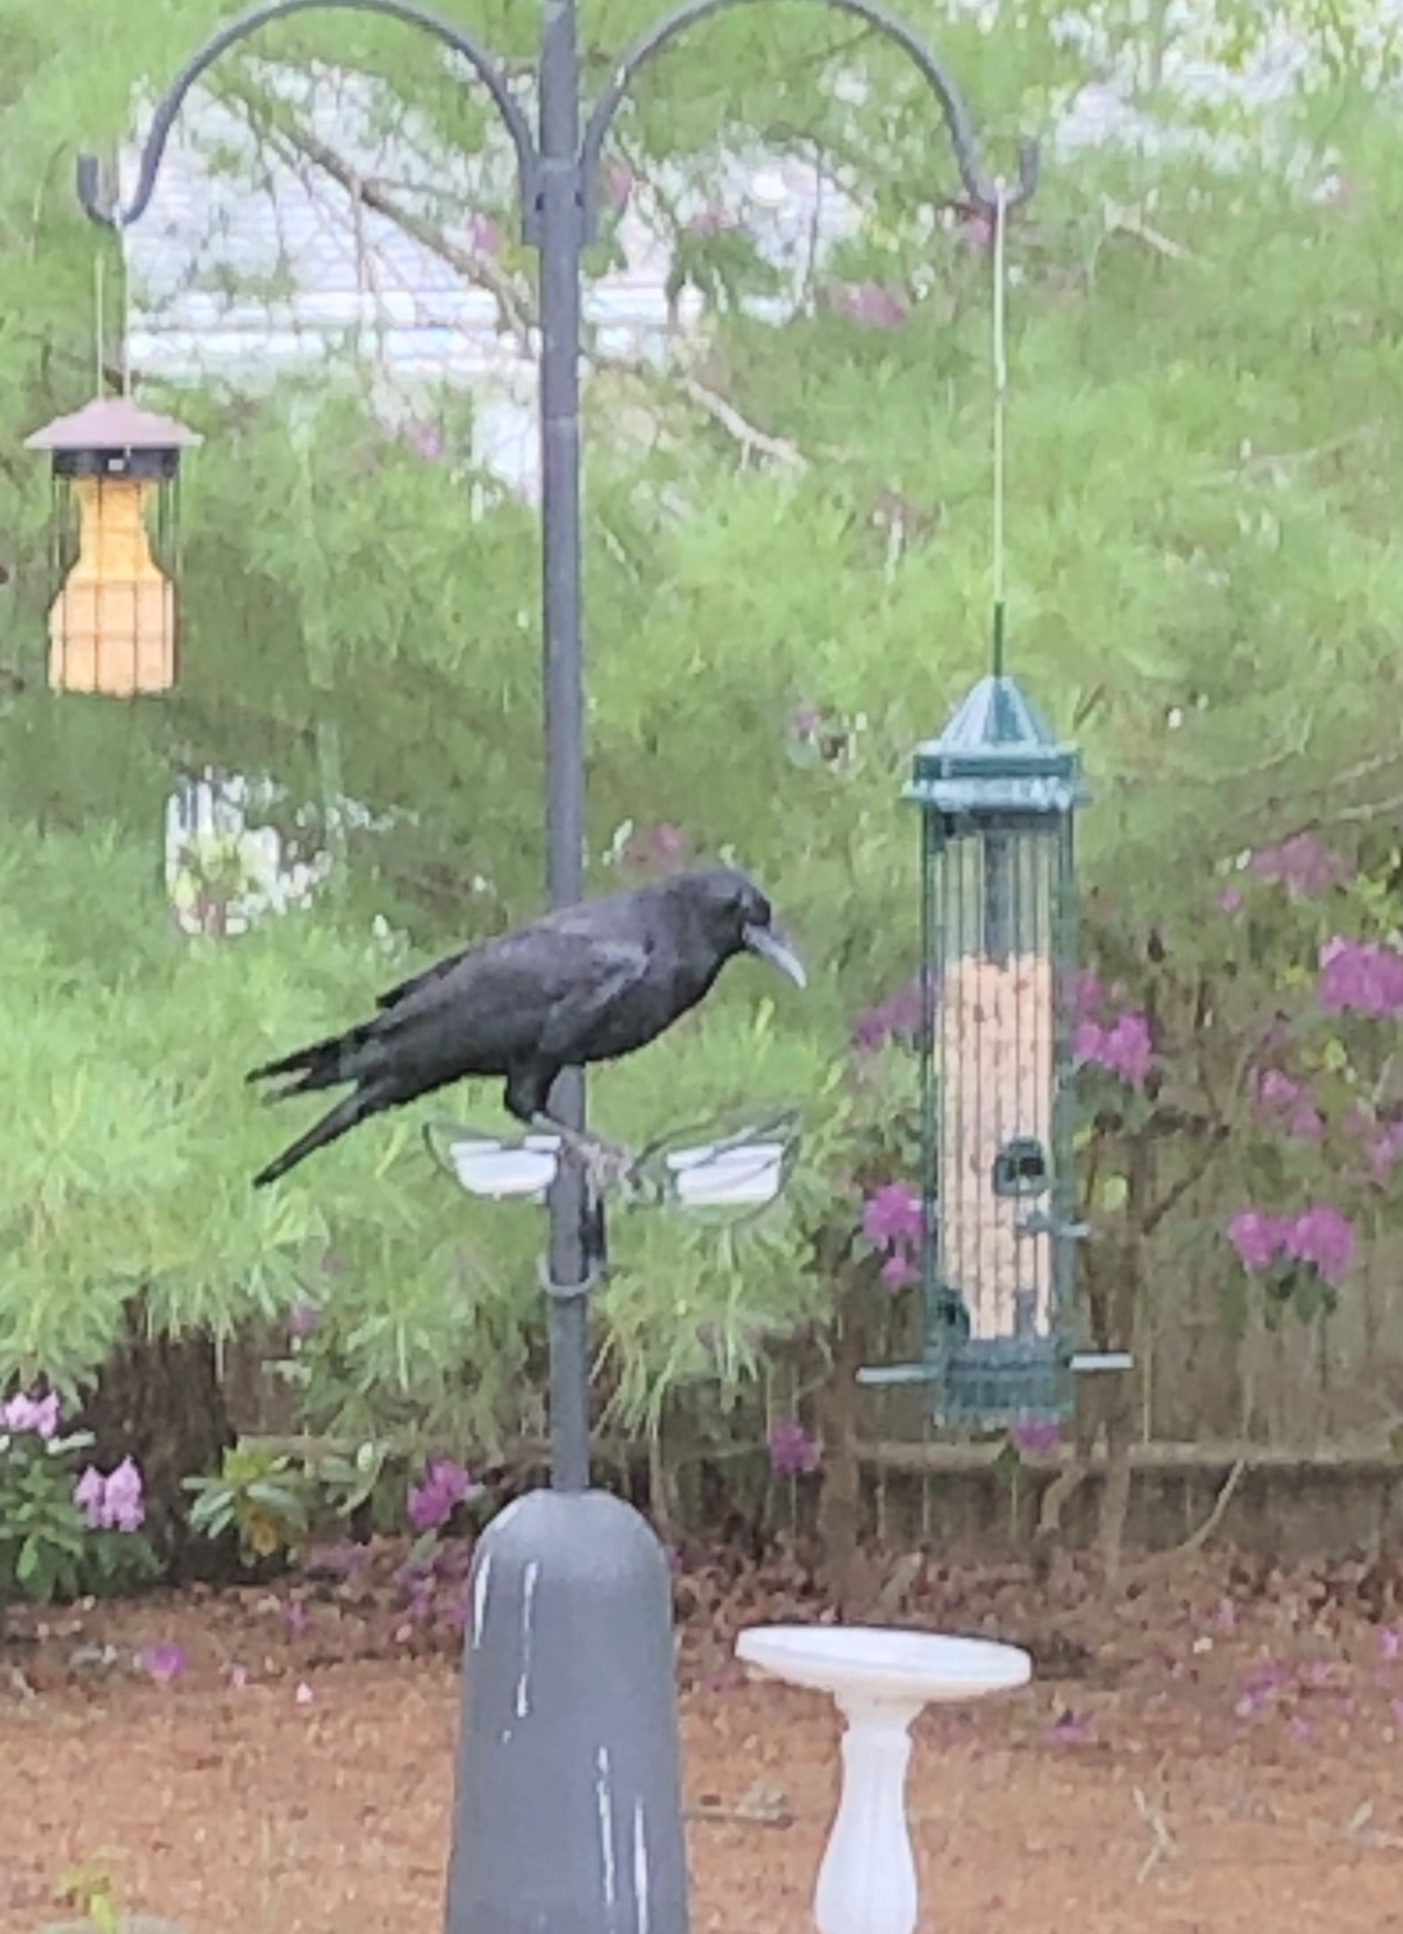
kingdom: Animalia
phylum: Chordata
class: Aves
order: Passeriformes
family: Corvidae
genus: Corvus
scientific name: Corvus brachyrhynchos
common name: American crow
